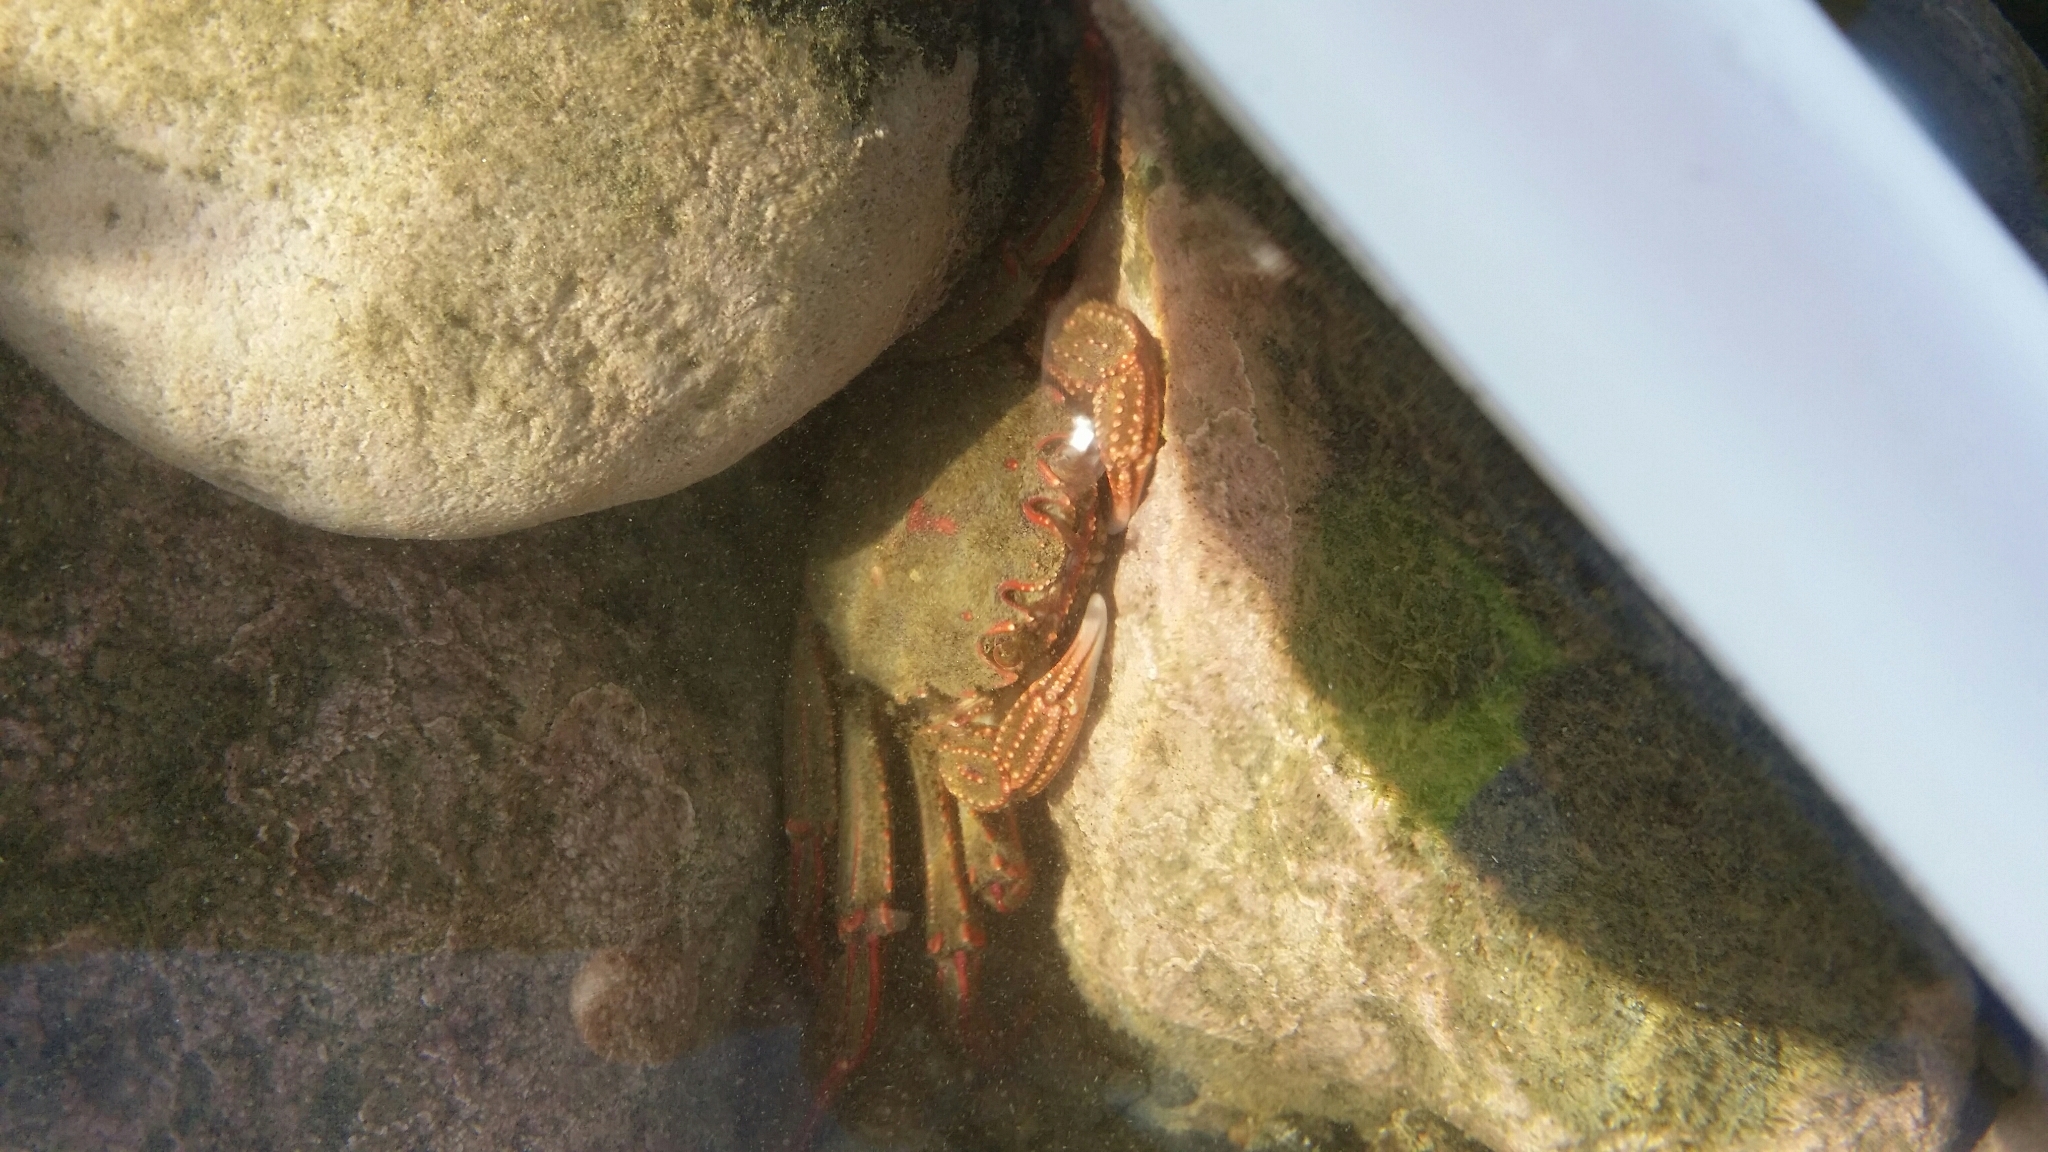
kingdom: Animalia
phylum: Arthropoda
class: Malacostraca
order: Decapoda
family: Plagusiidae
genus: Guinusia
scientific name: Guinusia chabrus
